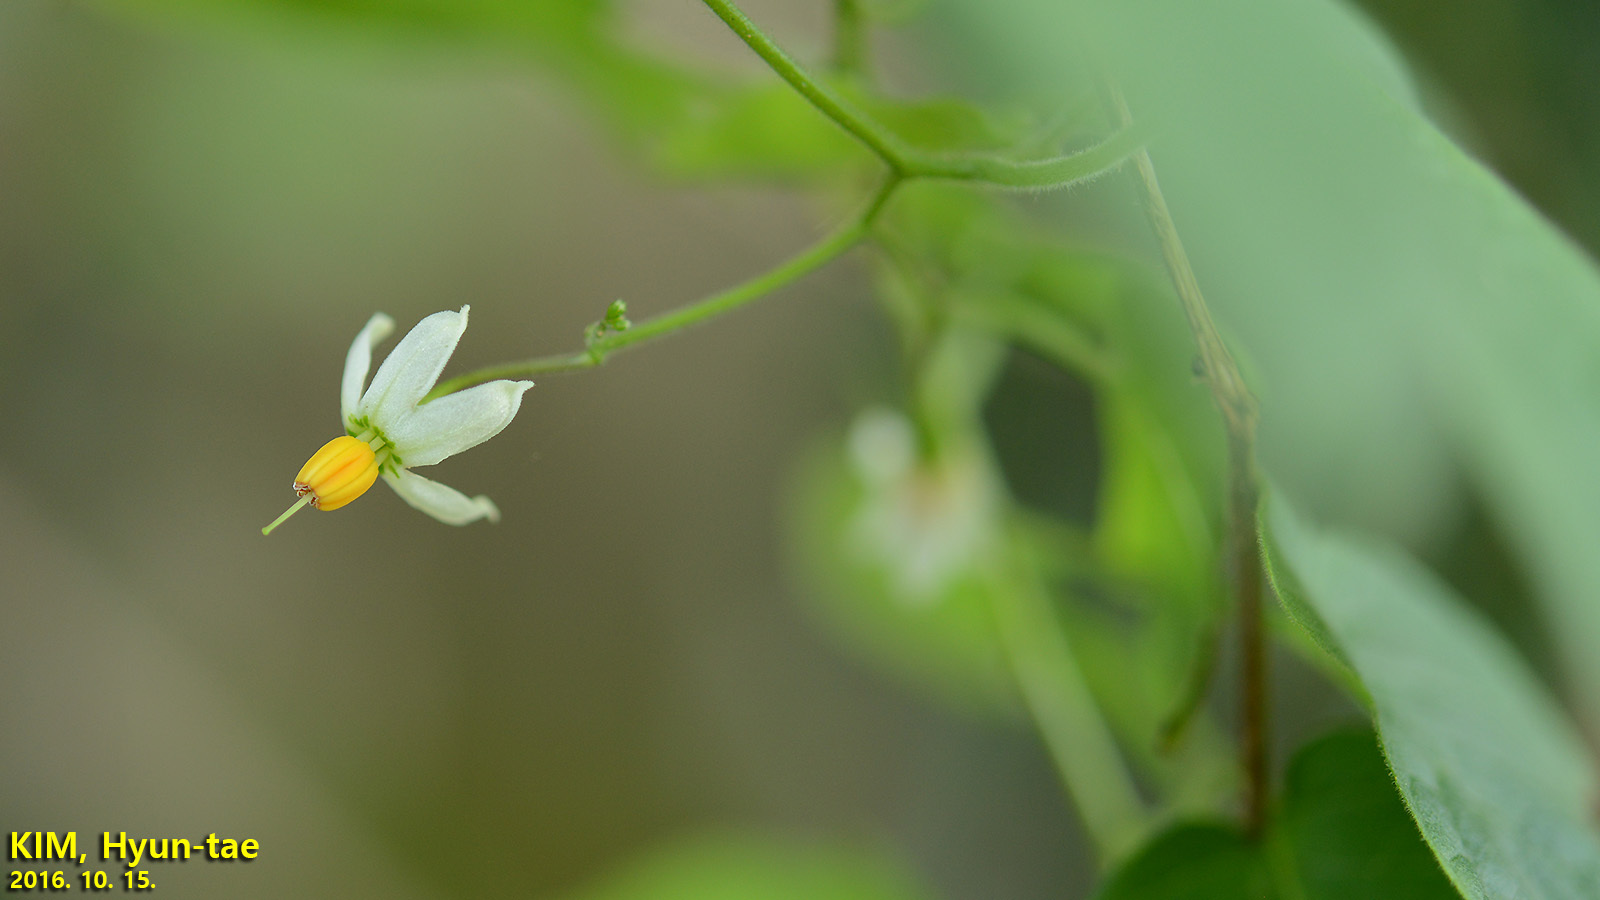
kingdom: Plantae
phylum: Tracheophyta
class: Magnoliopsida
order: Solanales
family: Solanaceae
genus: Solanum
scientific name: Solanum lyratum
